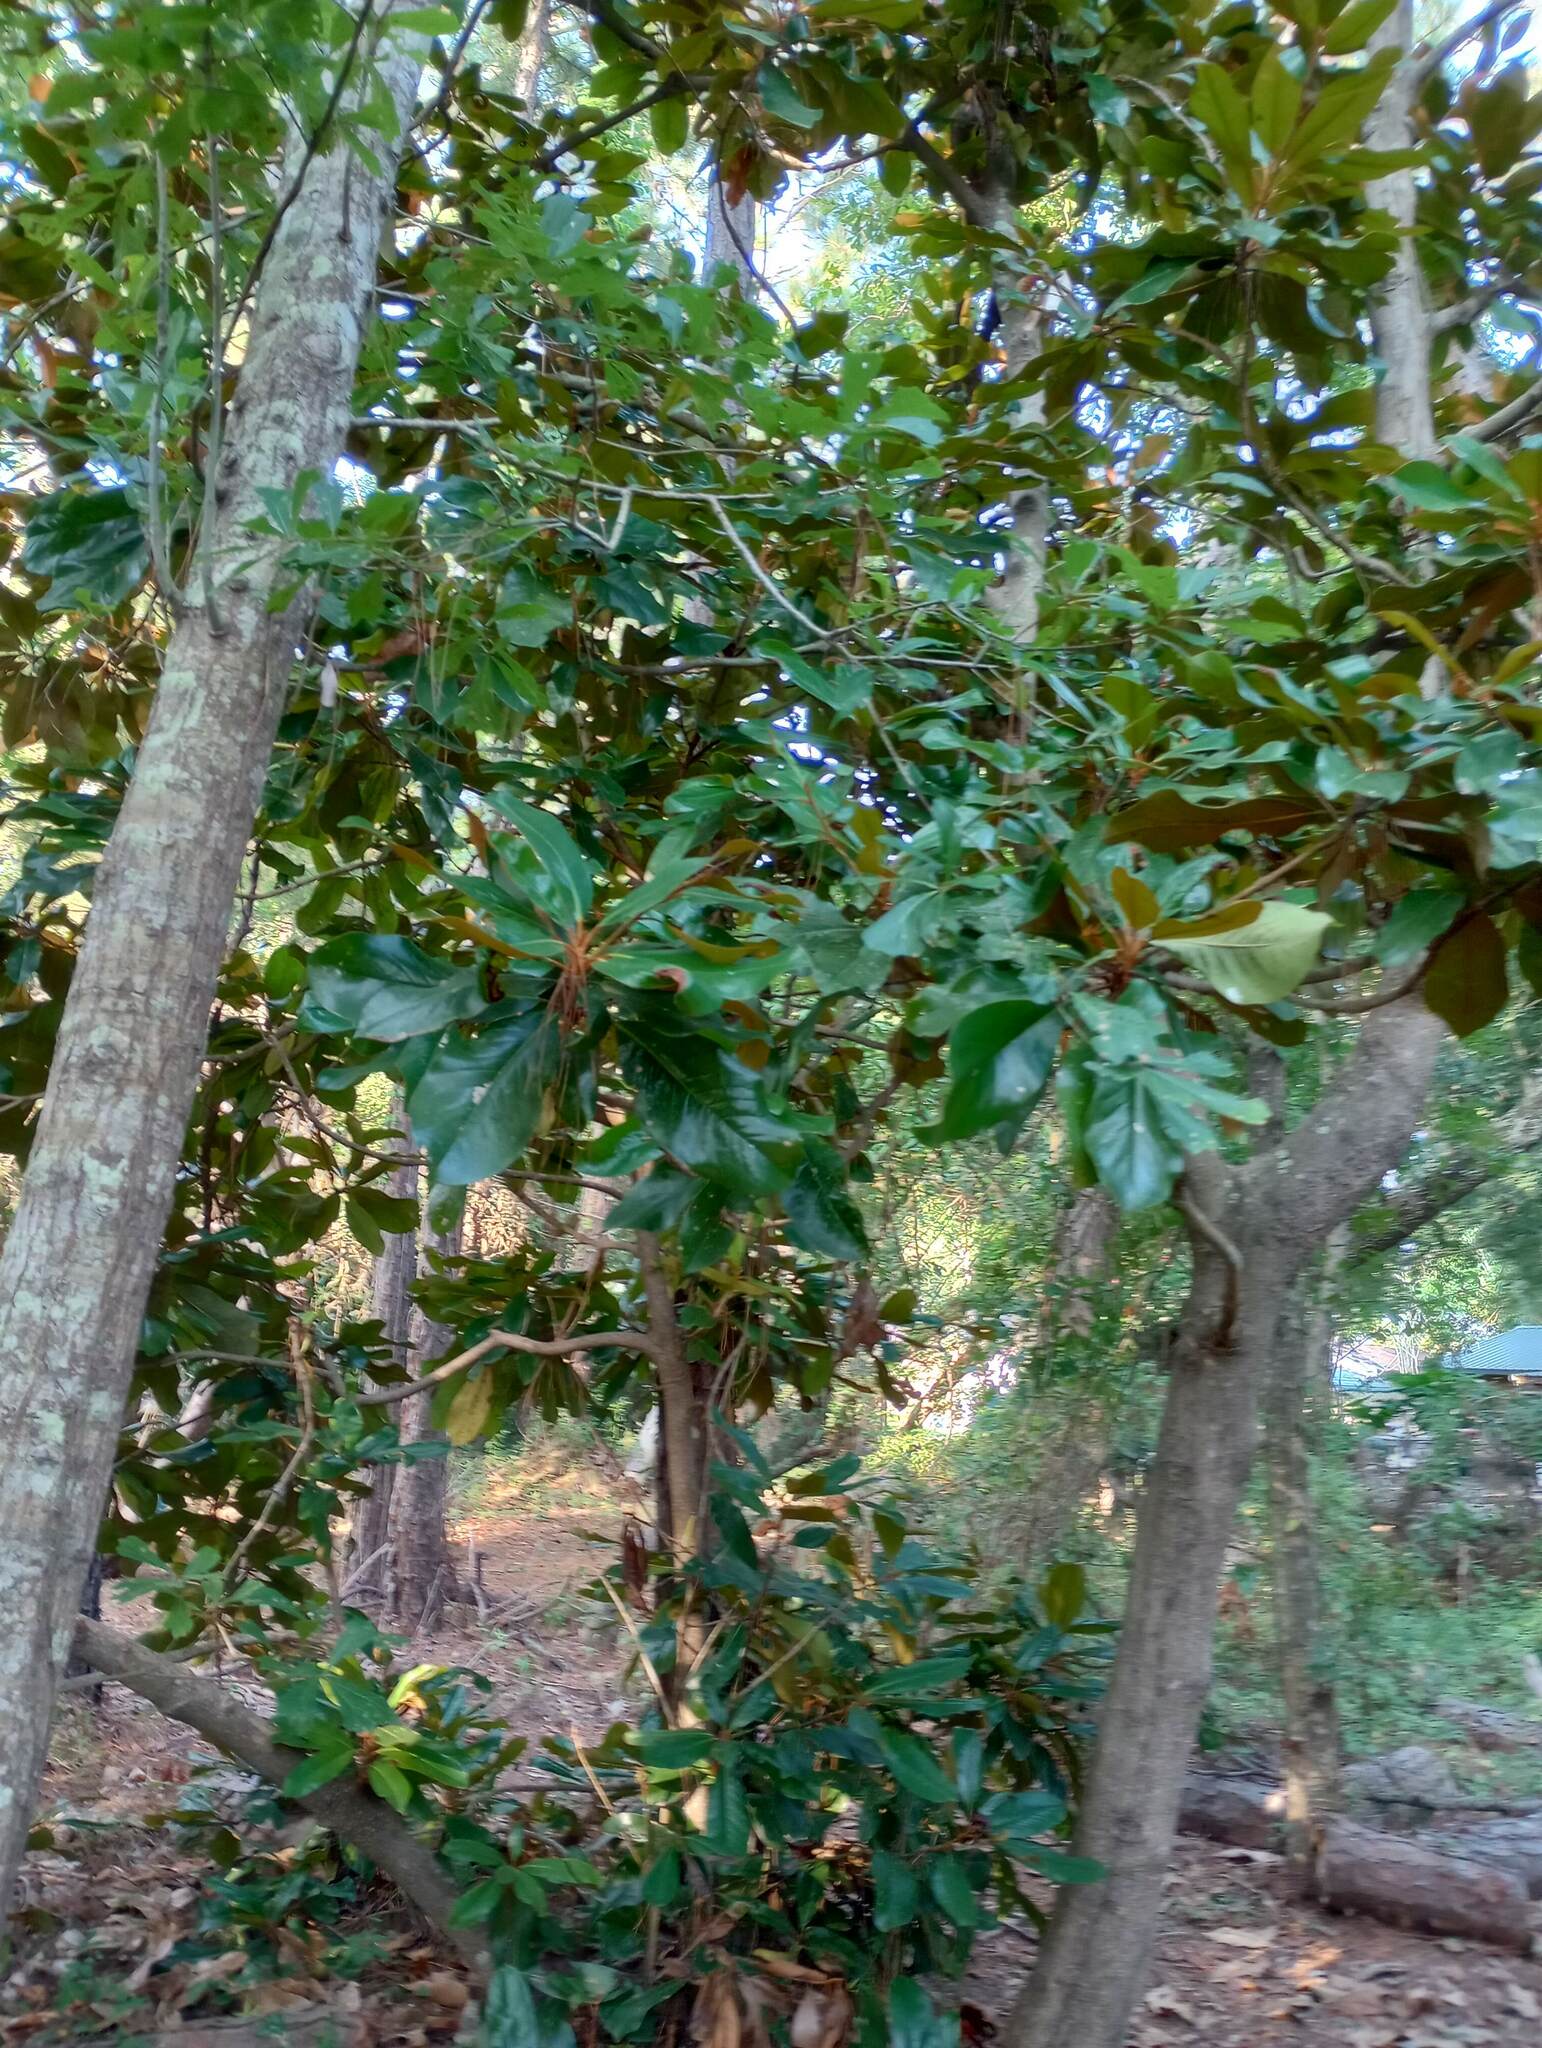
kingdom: Plantae
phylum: Tracheophyta
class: Magnoliopsida
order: Magnoliales
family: Magnoliaceae
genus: Magnolia
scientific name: Magnolia grandiflora
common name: Southern magnolia
